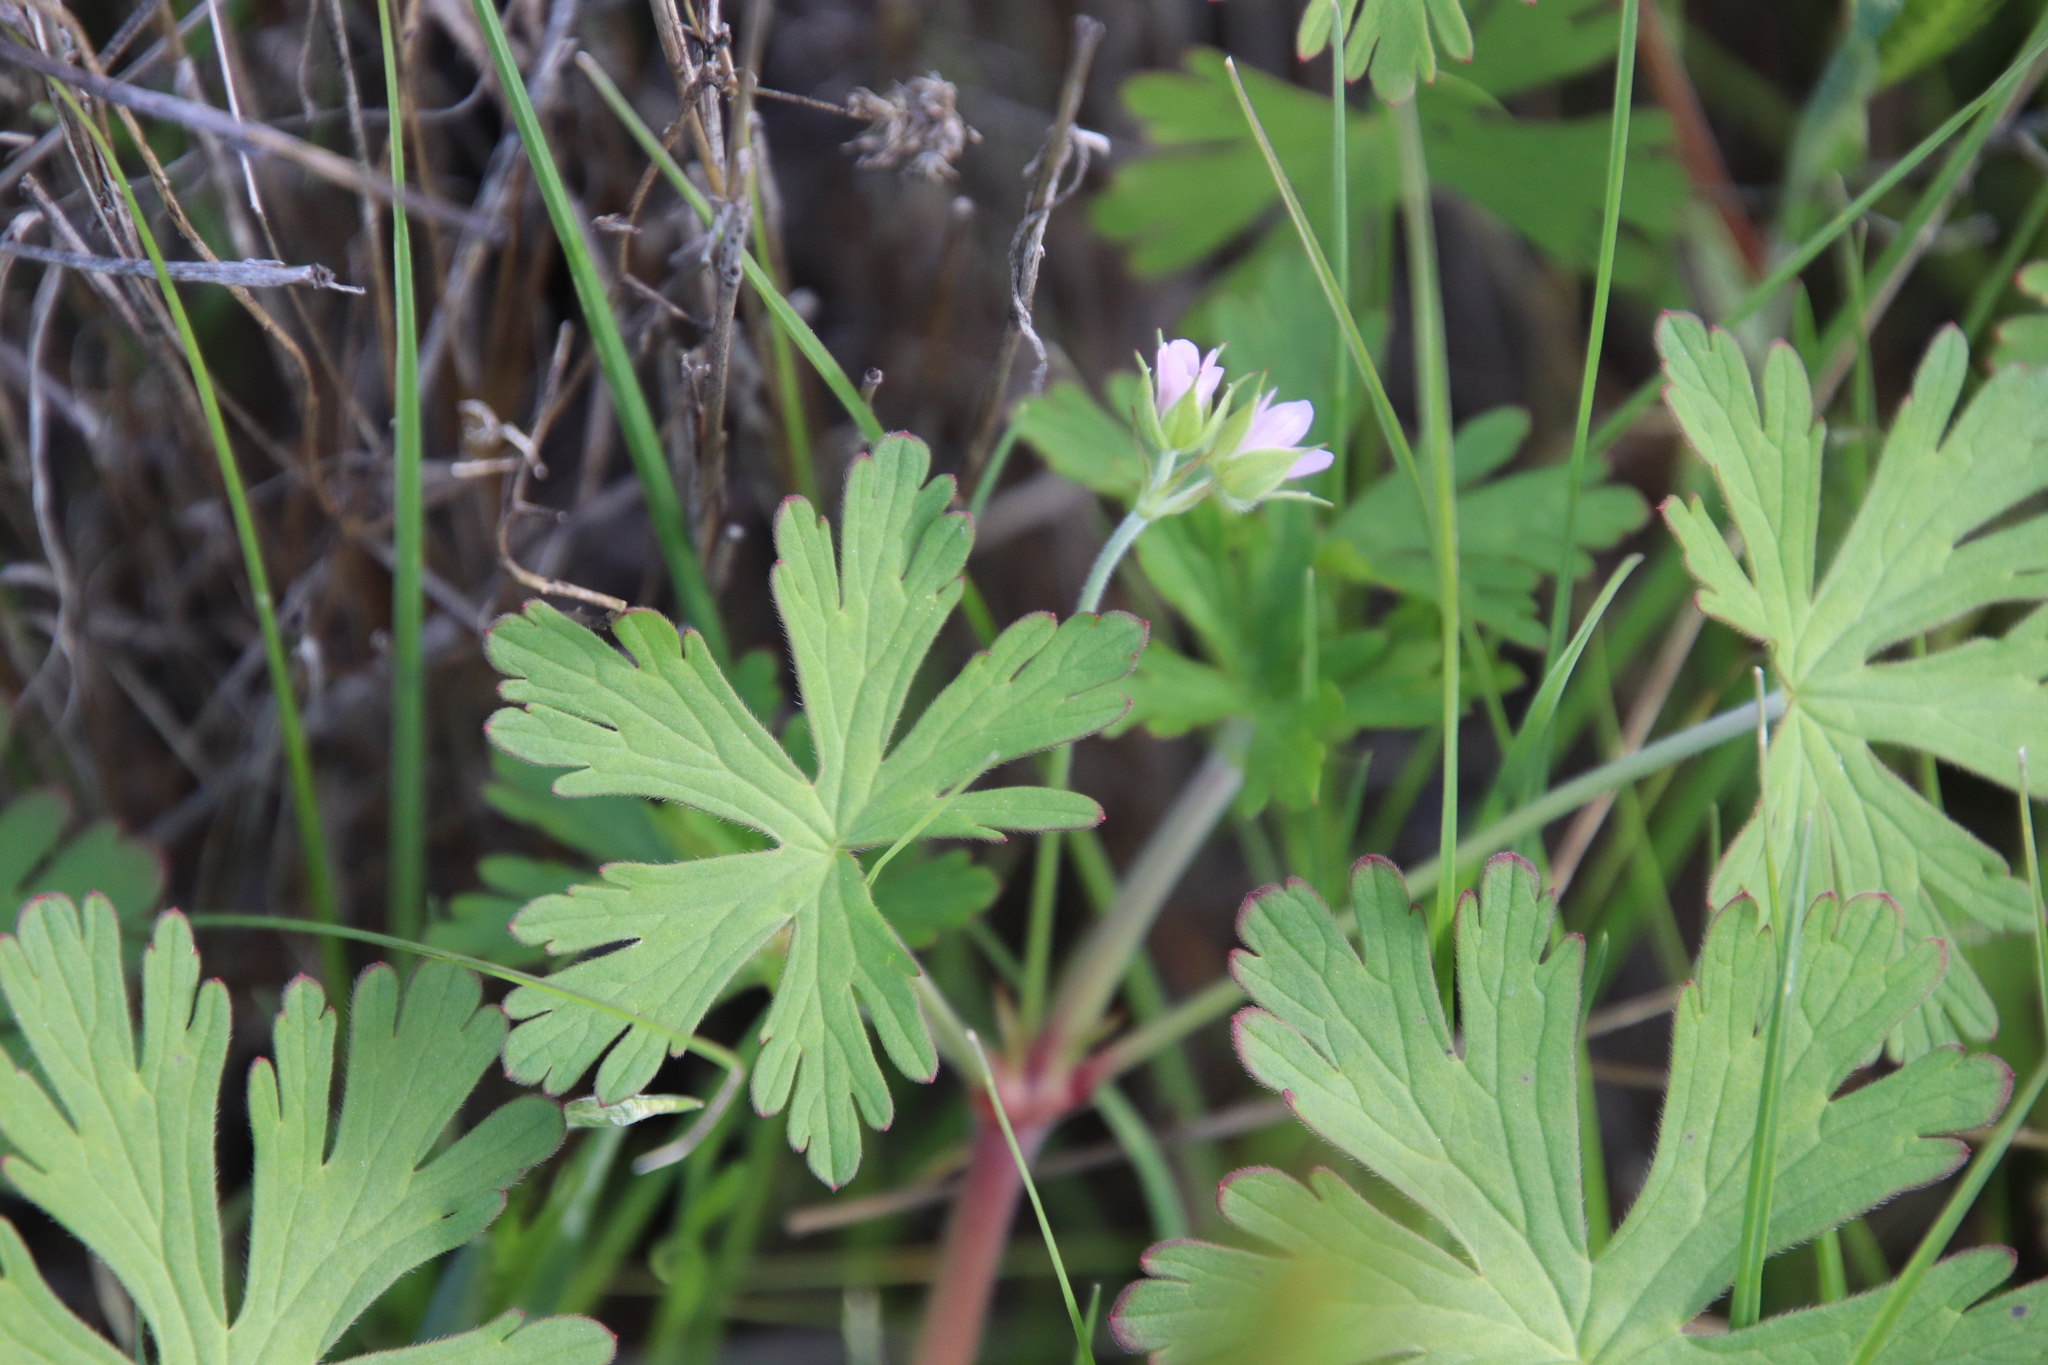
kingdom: Plantae
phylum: Tracheophyta
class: Magnoliopsida
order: Geraniales
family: Geraniaceae
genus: Geranium
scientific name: Geranium carolinianum
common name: Carolina crane's-bill
